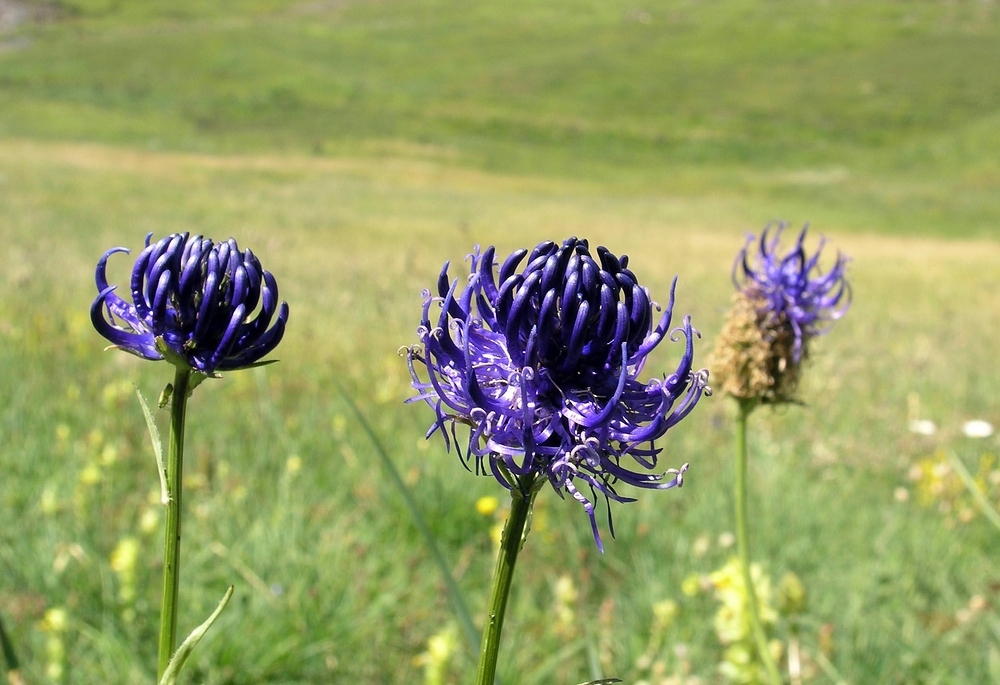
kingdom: Plantae
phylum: Tracheophyta
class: Magnoliopsida
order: Asterales
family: Campanulaceae
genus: Phyteuma
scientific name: Phyteuma orbiculare
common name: Round-headed rampion
